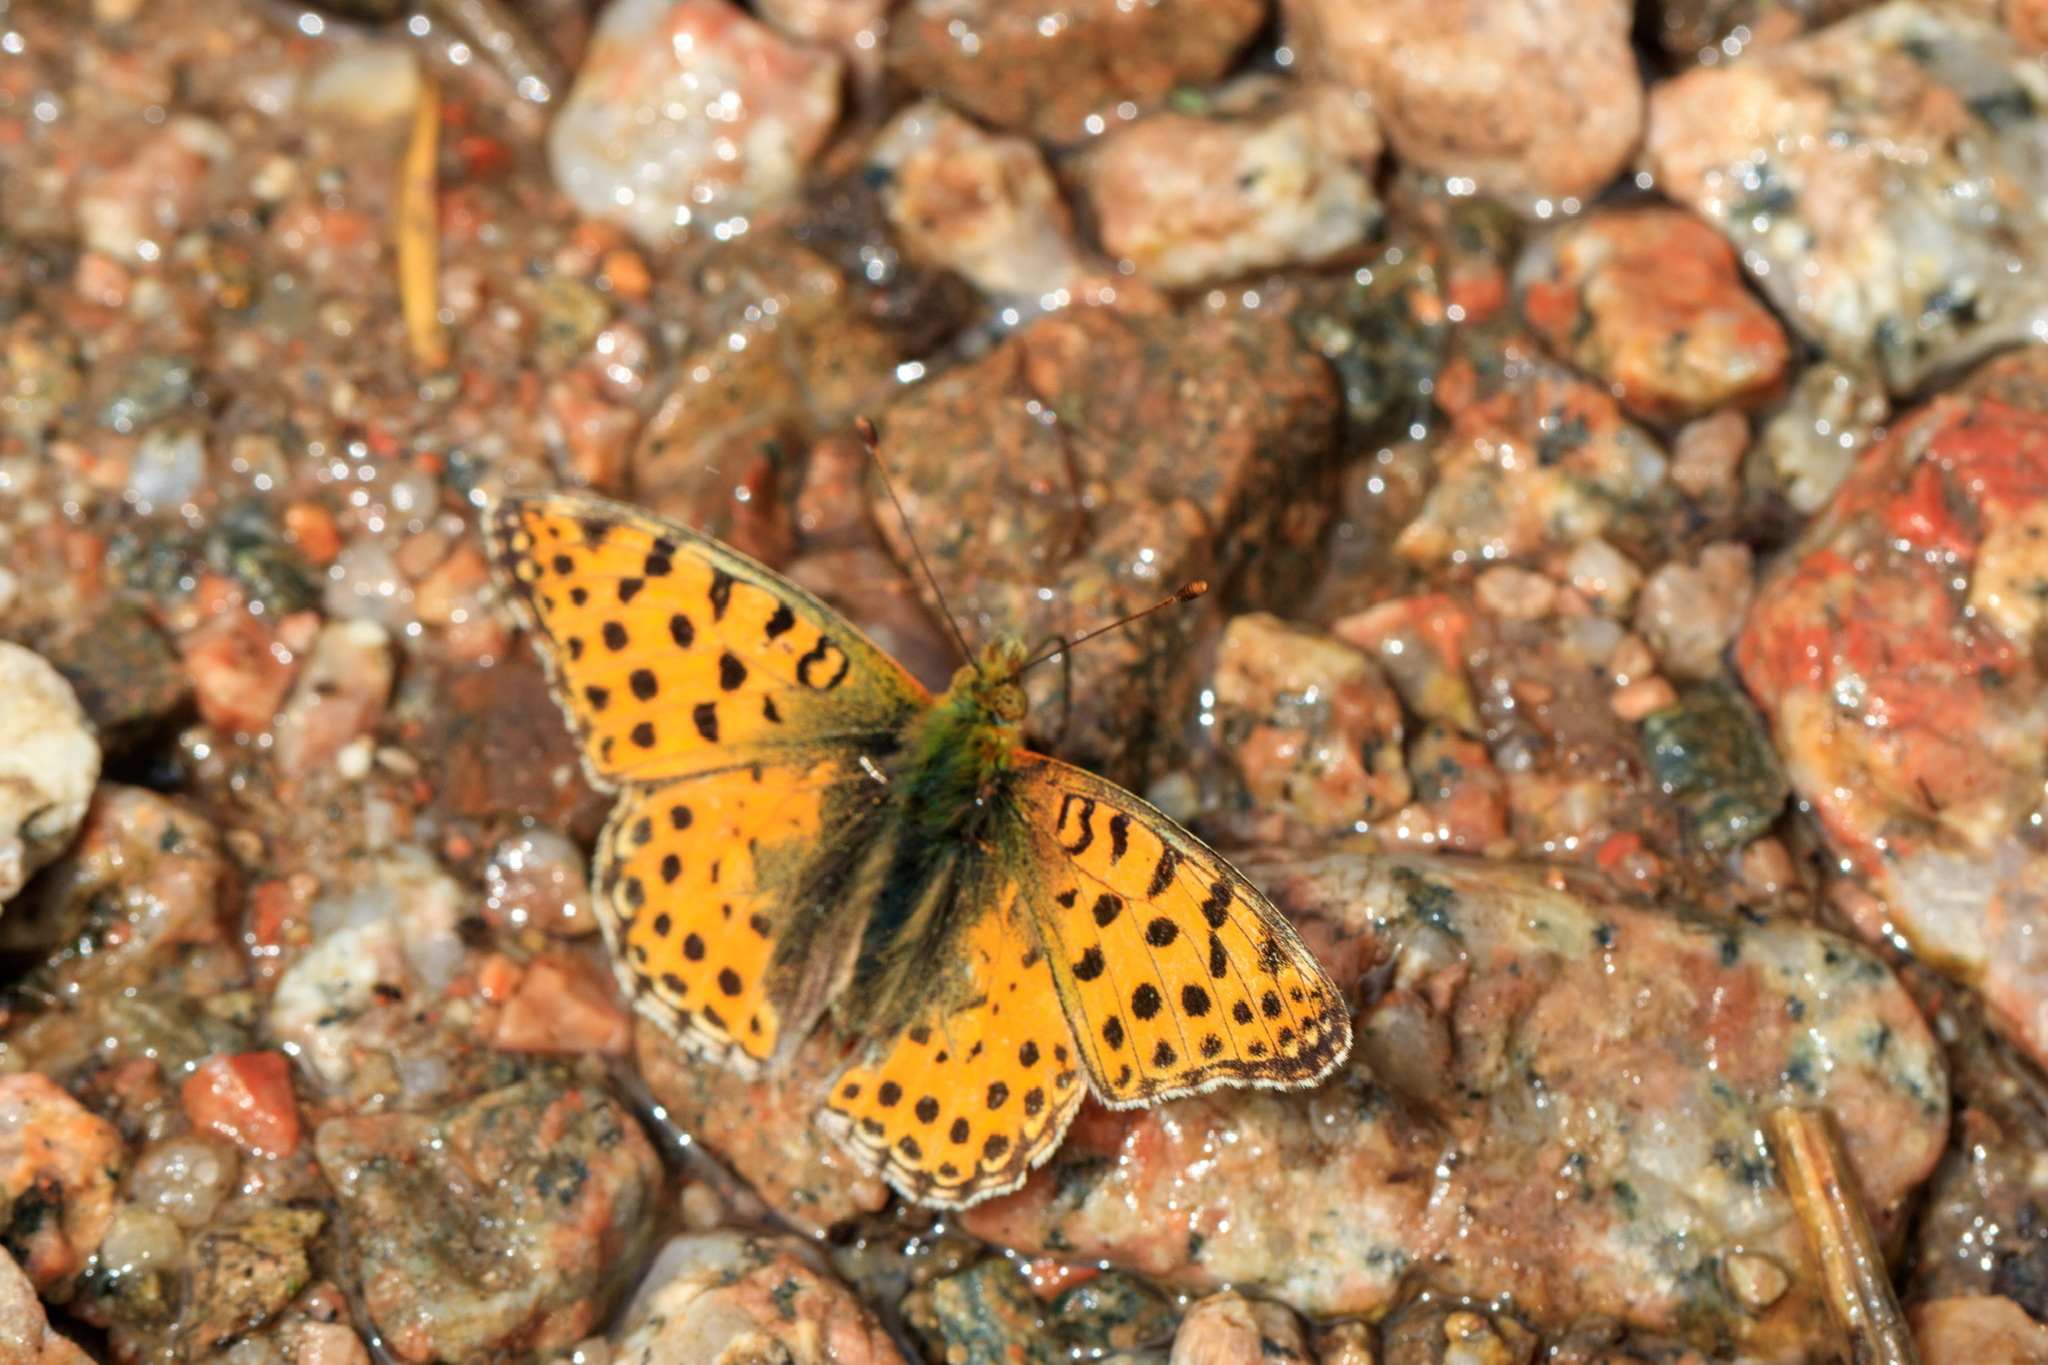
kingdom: Animalia
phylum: Arthropoda
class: Insecta
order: Lepidoptera
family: Nymphalidae
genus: Issoria
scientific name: Issoria lathonia
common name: Queen of spain fritillary
